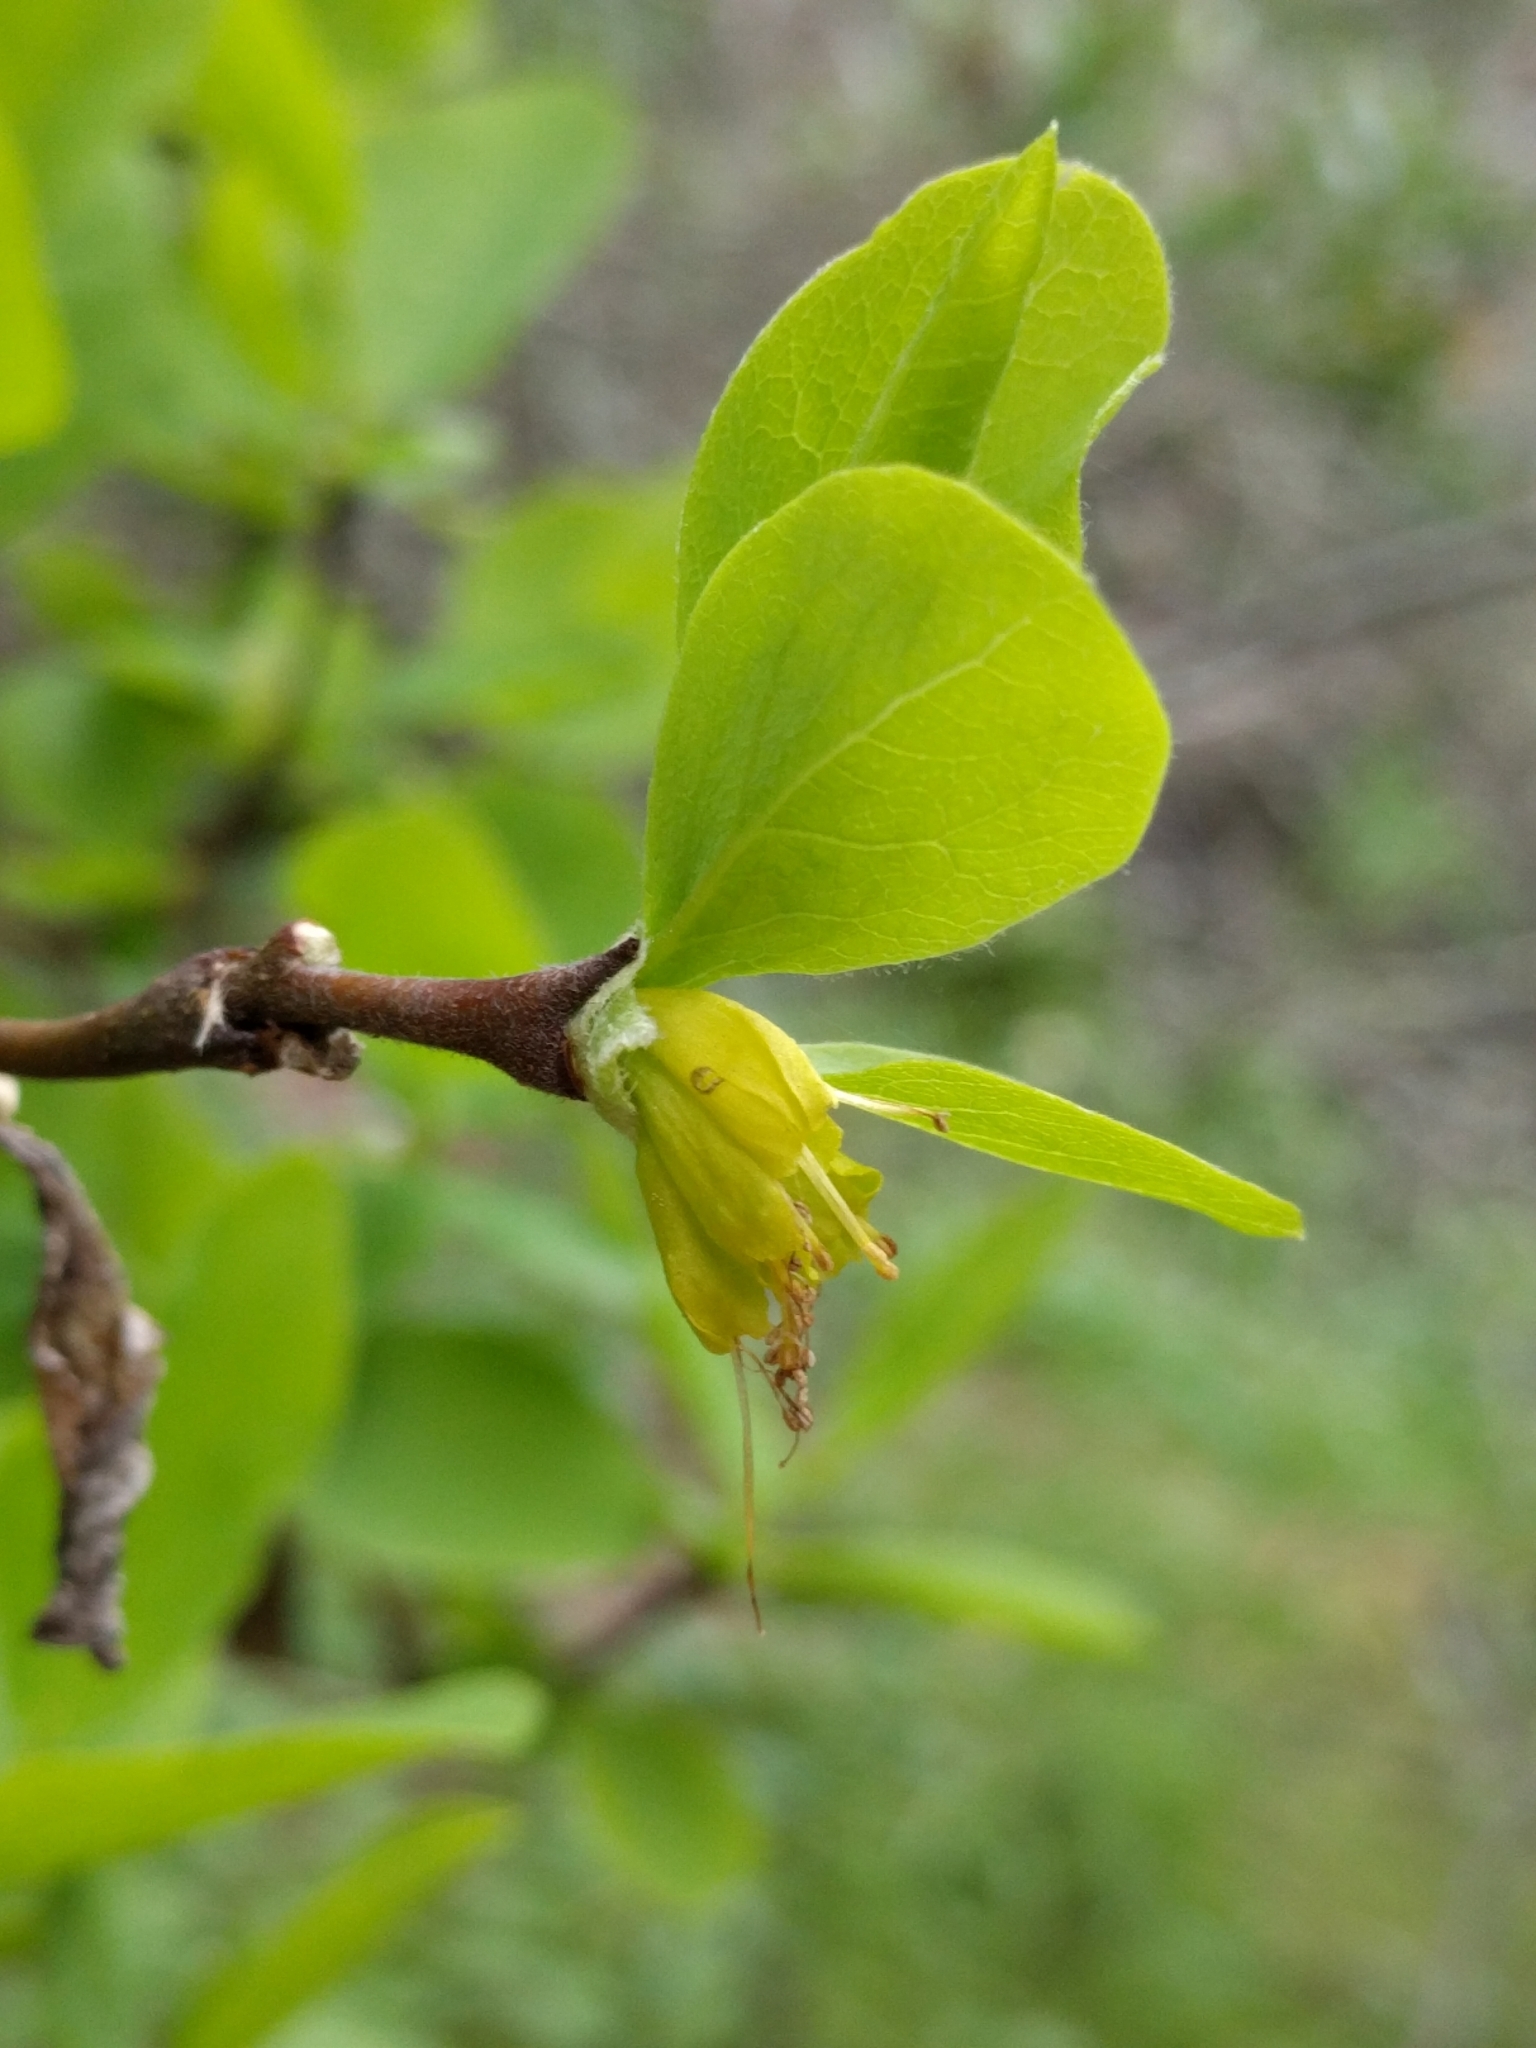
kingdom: Plantae
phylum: Tracheophyta
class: Magnoliopsida
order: Malvales
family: Thymelaeaceae
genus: Dirca
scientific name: Dirca occidentalis
